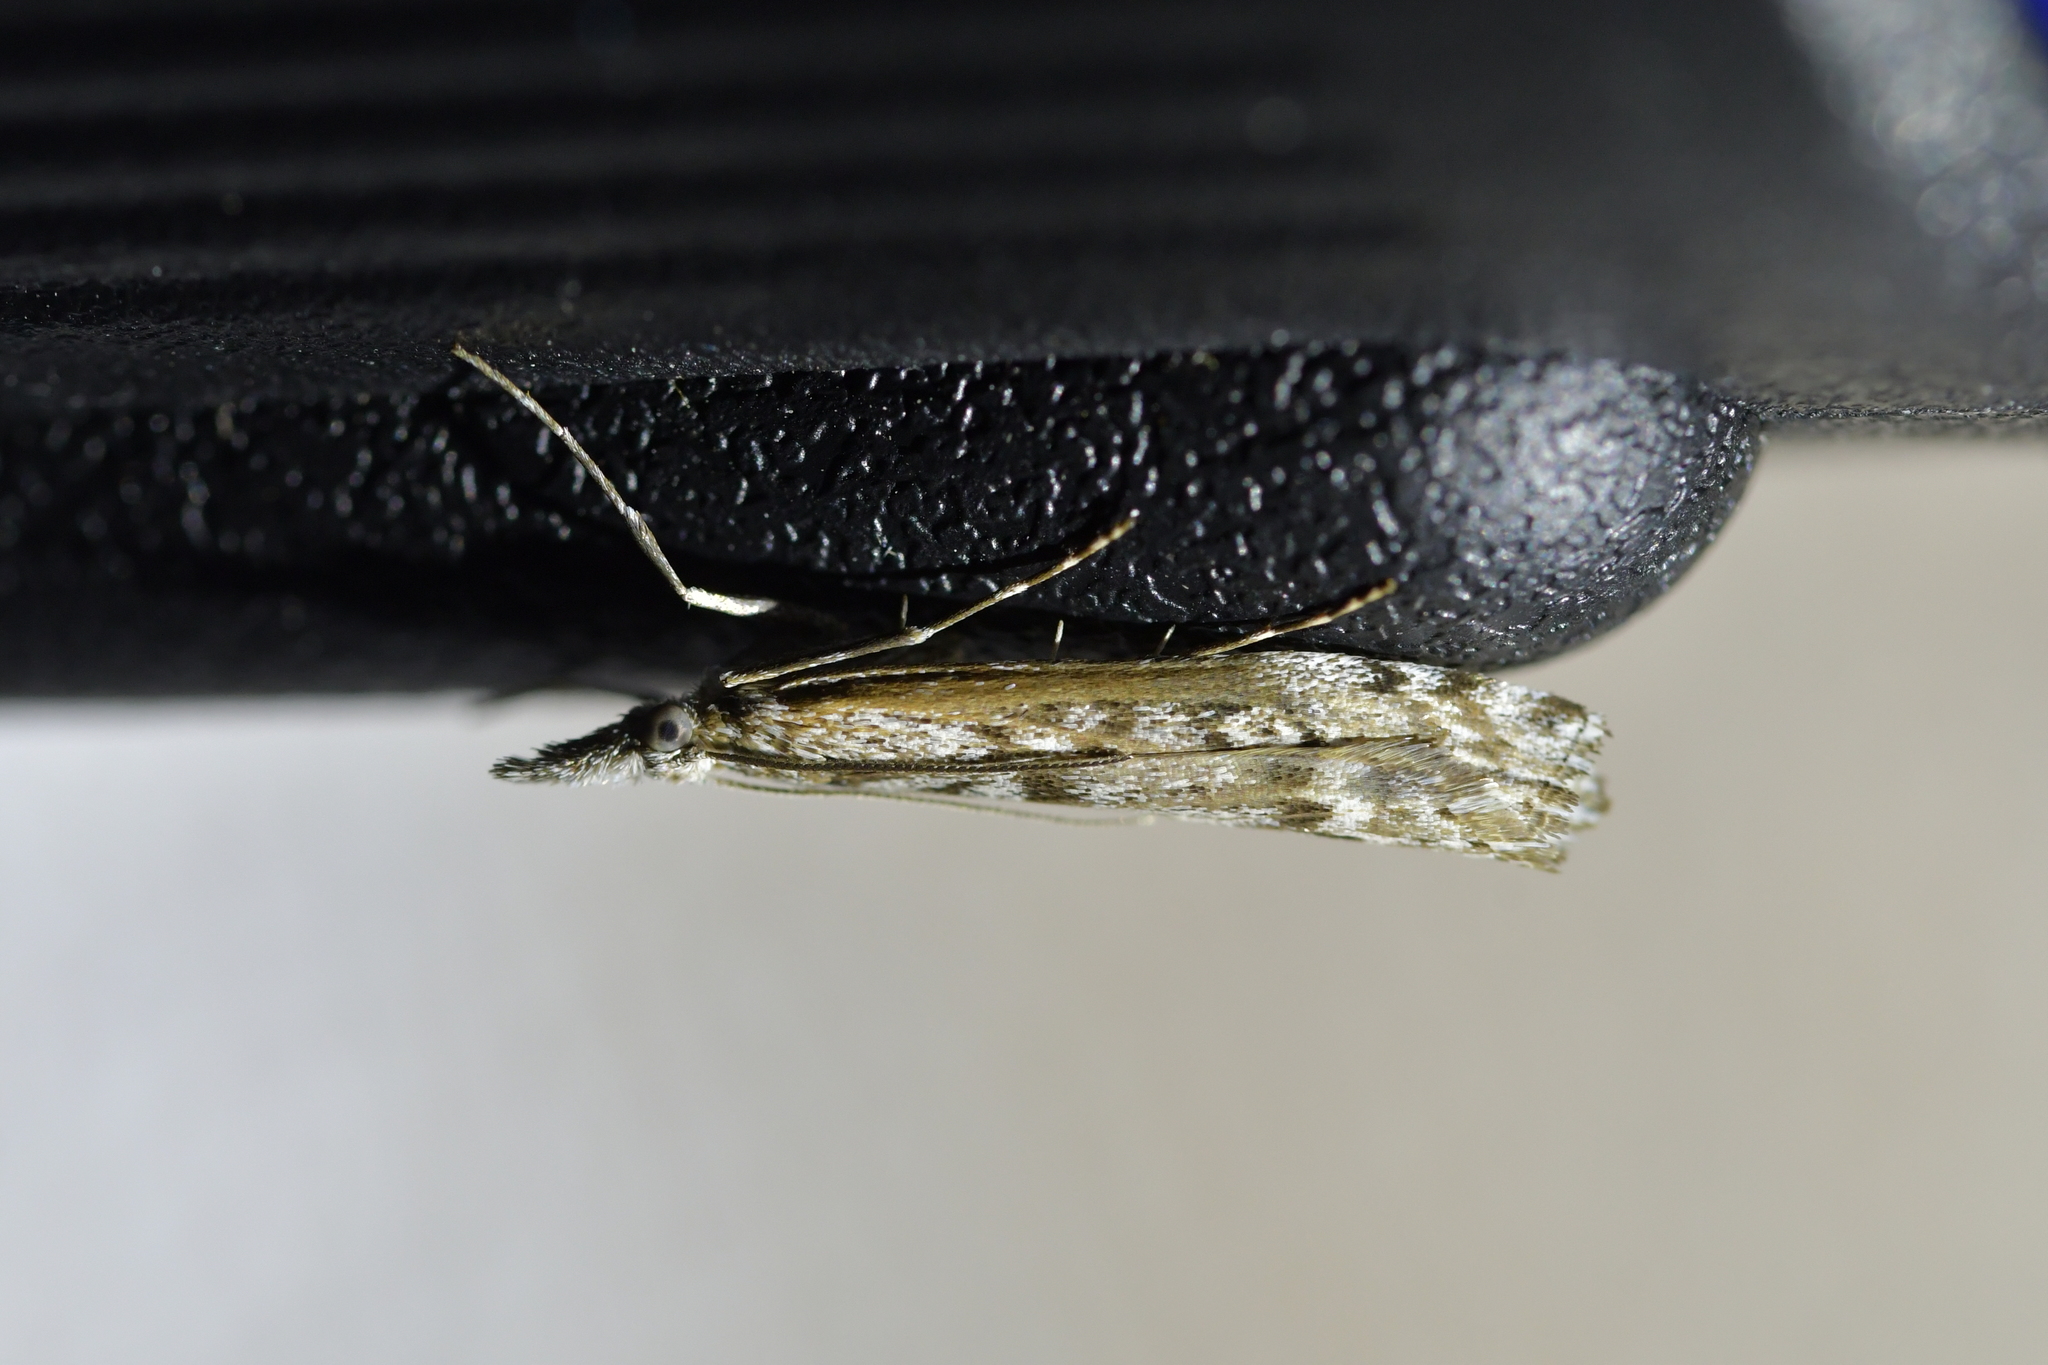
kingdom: Animalia
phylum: Arthropoda
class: Insecta
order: Lepidoptera
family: Crambidae
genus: Orocrambus
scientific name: Orocrambus cyclopicus
